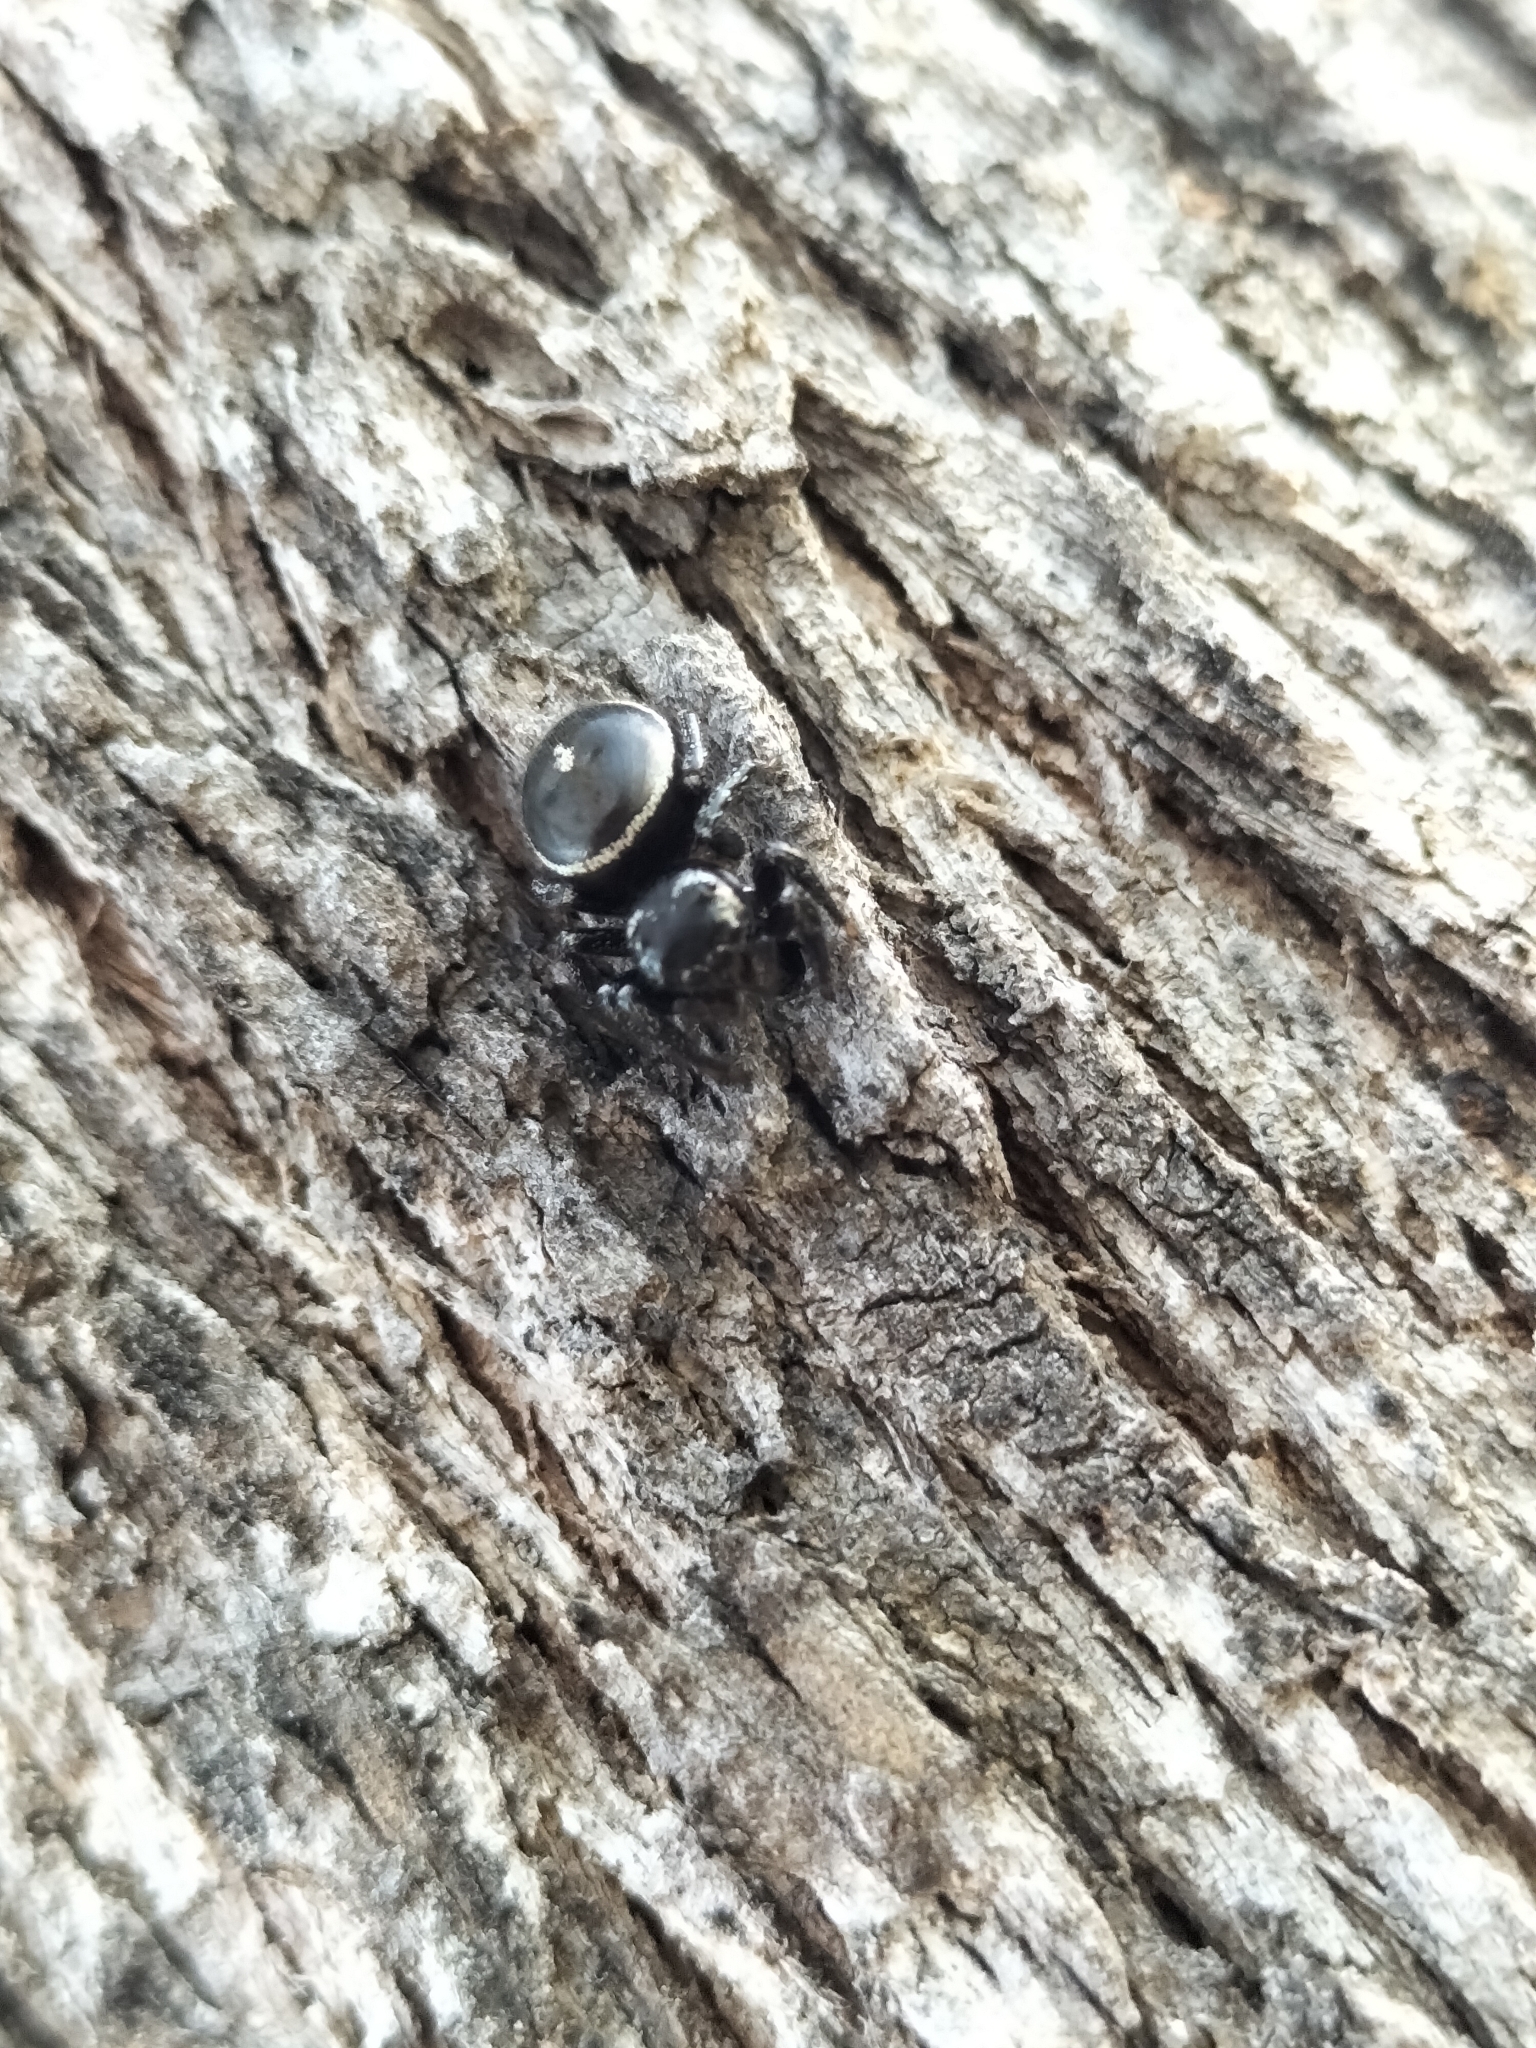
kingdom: Animalia
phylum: Arthropoda
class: Arachnida
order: Araneae
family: Salticidae
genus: Zenodorus
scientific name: Zenodorus orbiculatus
